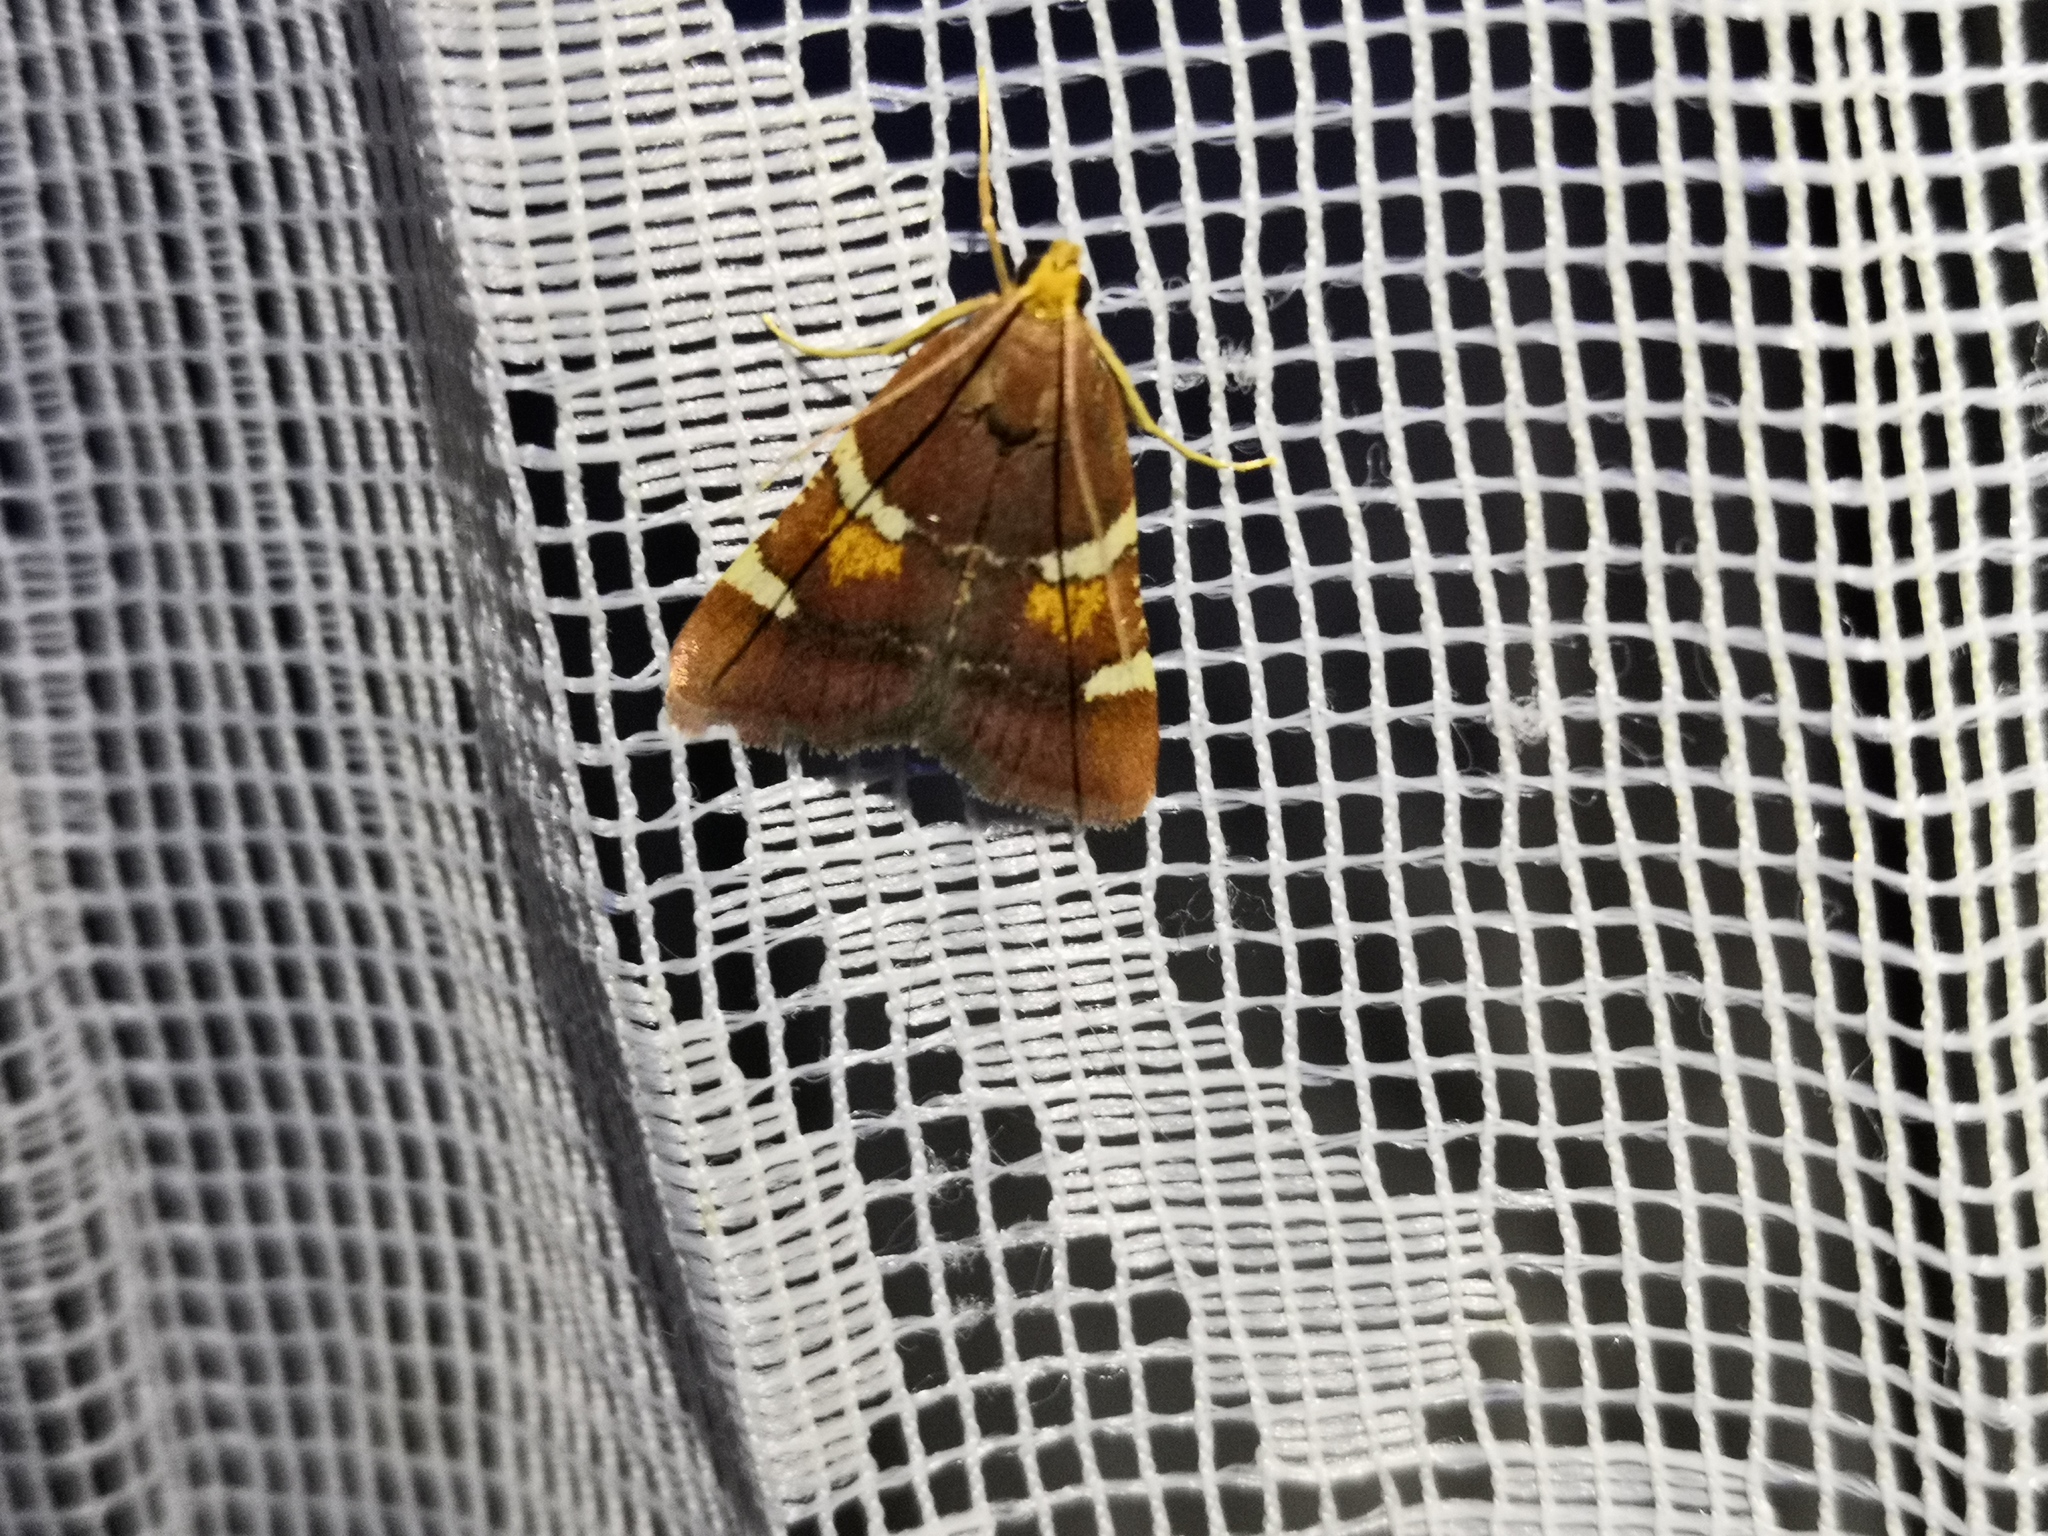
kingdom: Animalia
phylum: Arthropoda
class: Insecta
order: Lepidoptera
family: Pyralidae
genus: Pyralis
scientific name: Pyralis regalis
